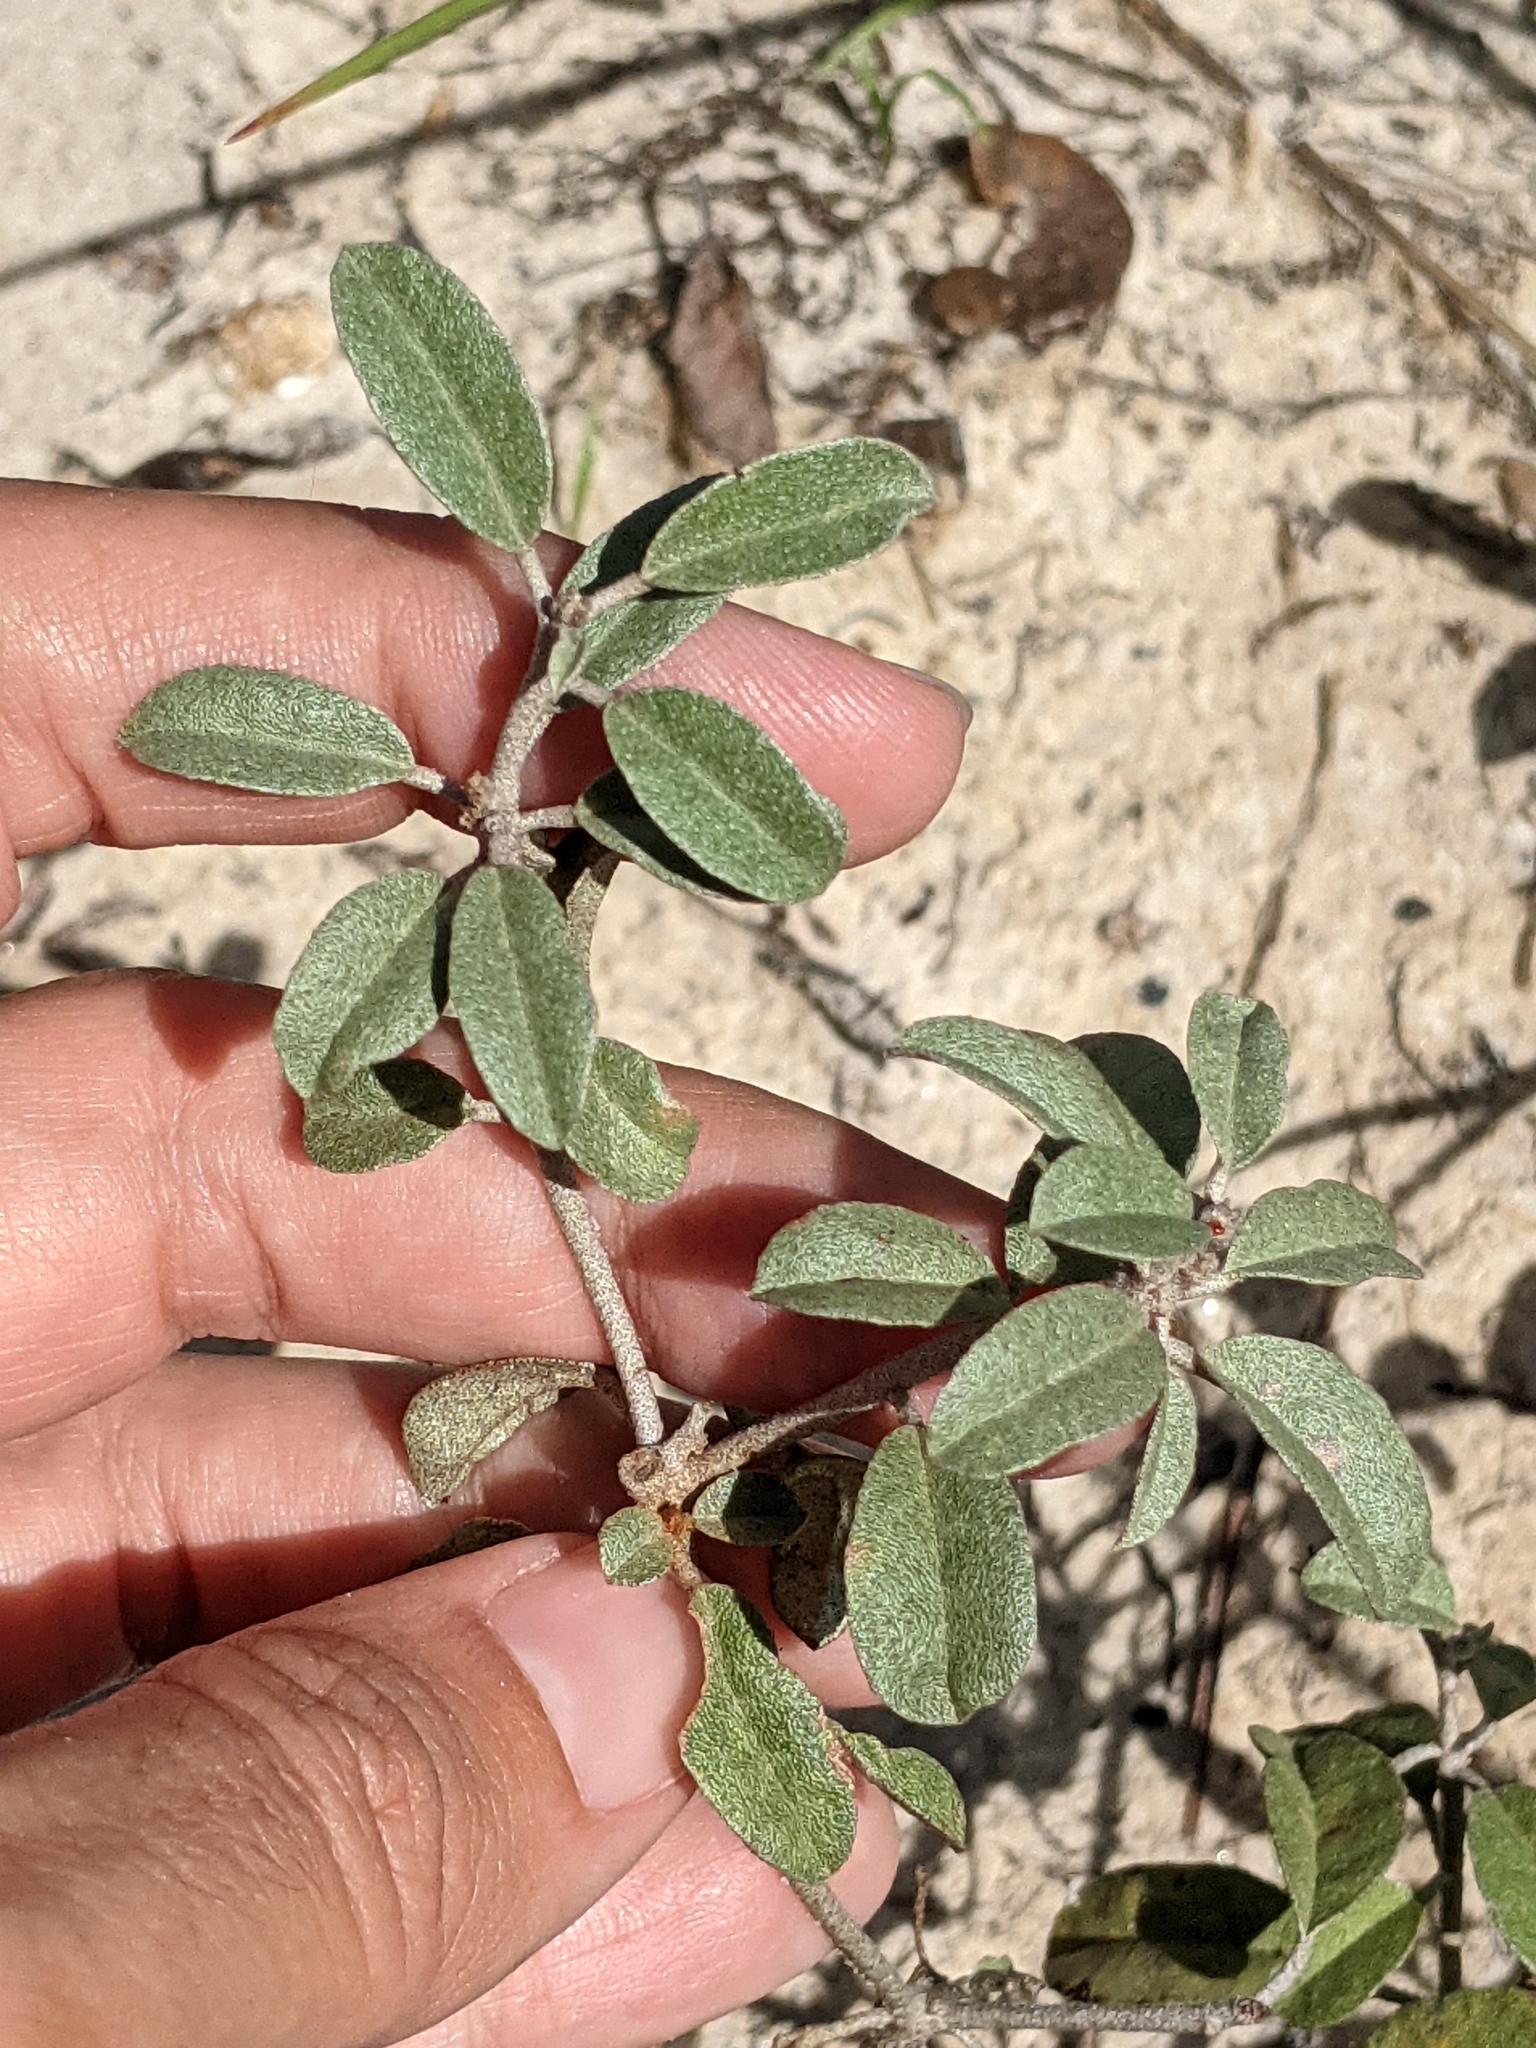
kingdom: Plantae
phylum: Tracheophyta
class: Magnoliopsida
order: Malpighiales
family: Euphorbiaceae
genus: Croton
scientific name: Croton argyranthemus
